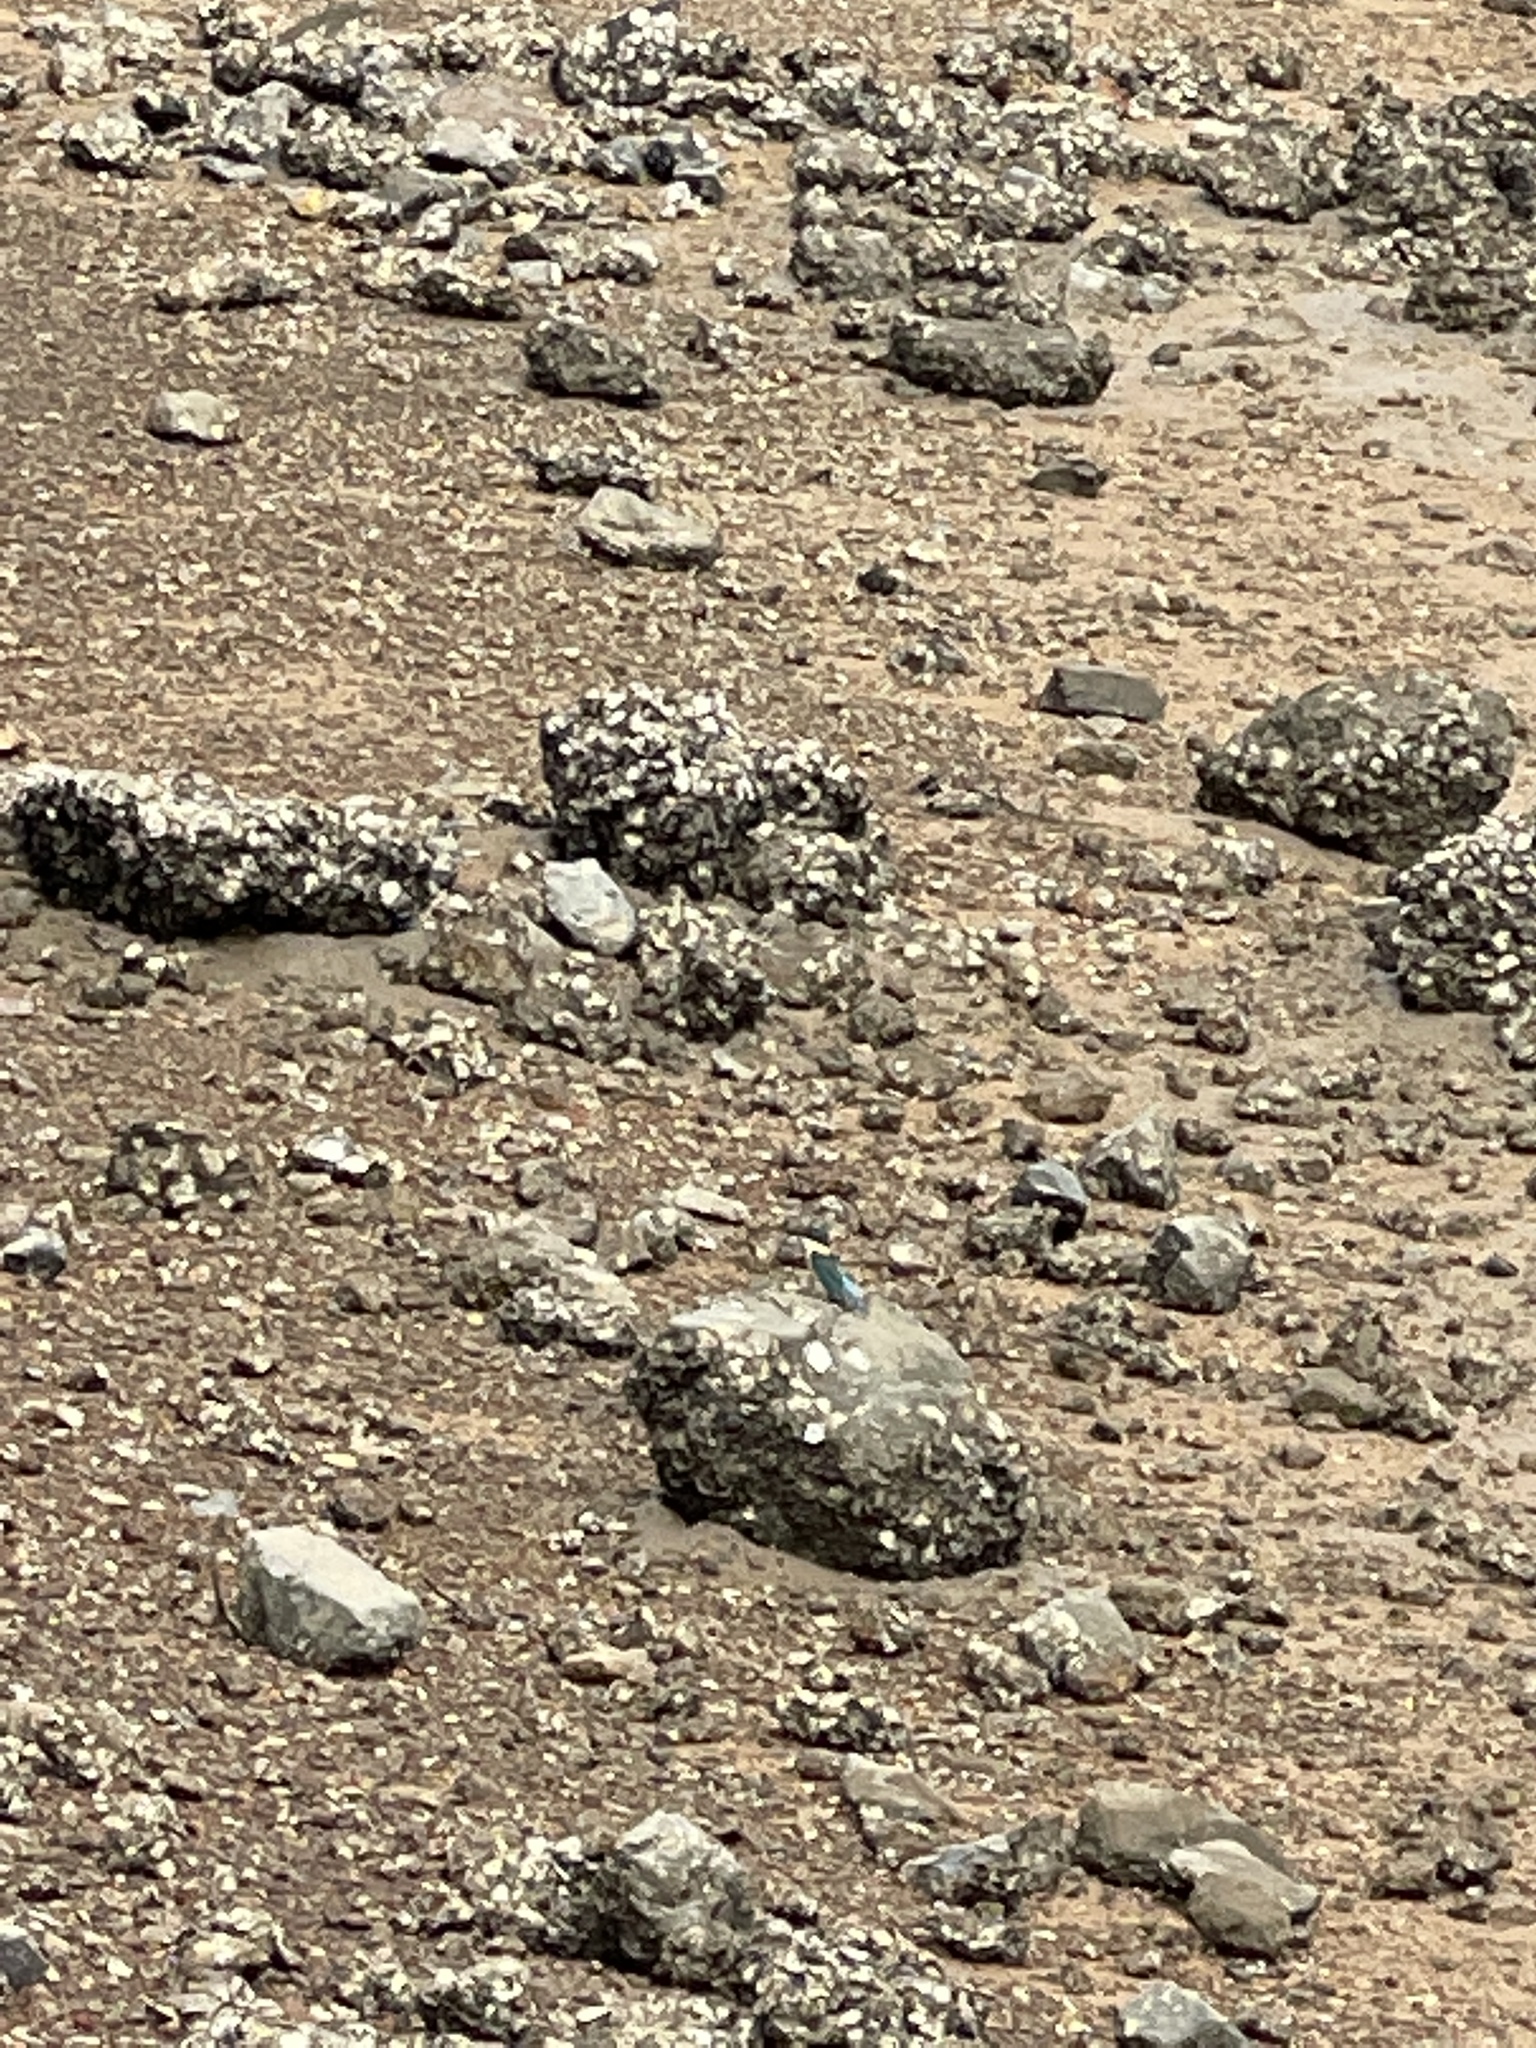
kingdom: Animalia
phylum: Chordata
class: Aves
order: Coraciiformes
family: Alcedinidae
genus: Todiramphus
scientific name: Todiramphus sanctus
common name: Sacred kingfisher
